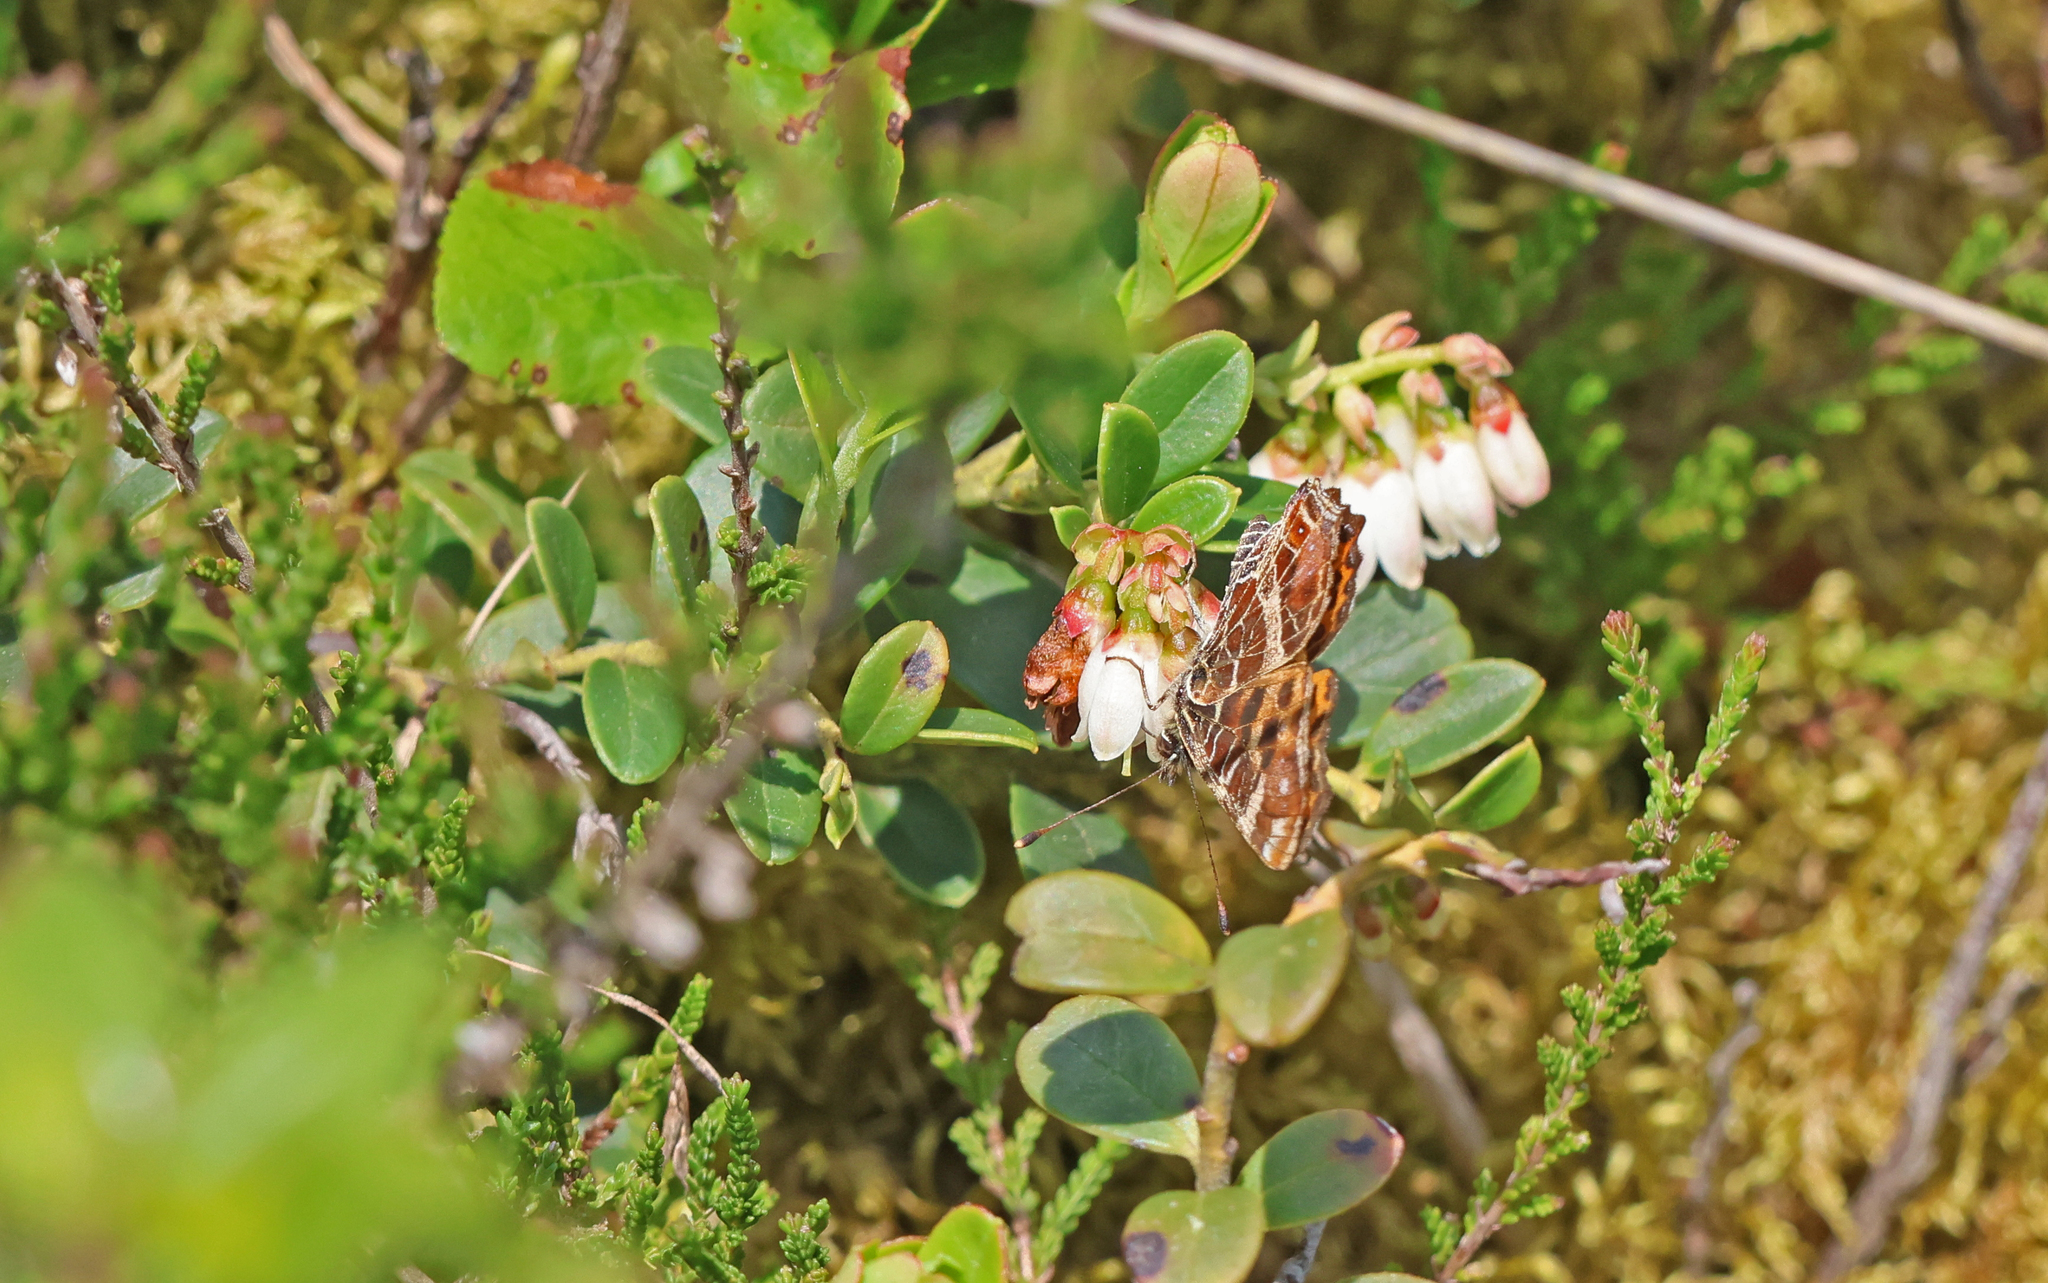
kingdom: Animalia
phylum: Arthropoda
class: Insecta
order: Lepidoptera
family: Nymphalidae
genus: Araschnia
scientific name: Araschnia levana
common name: Map butterfly
